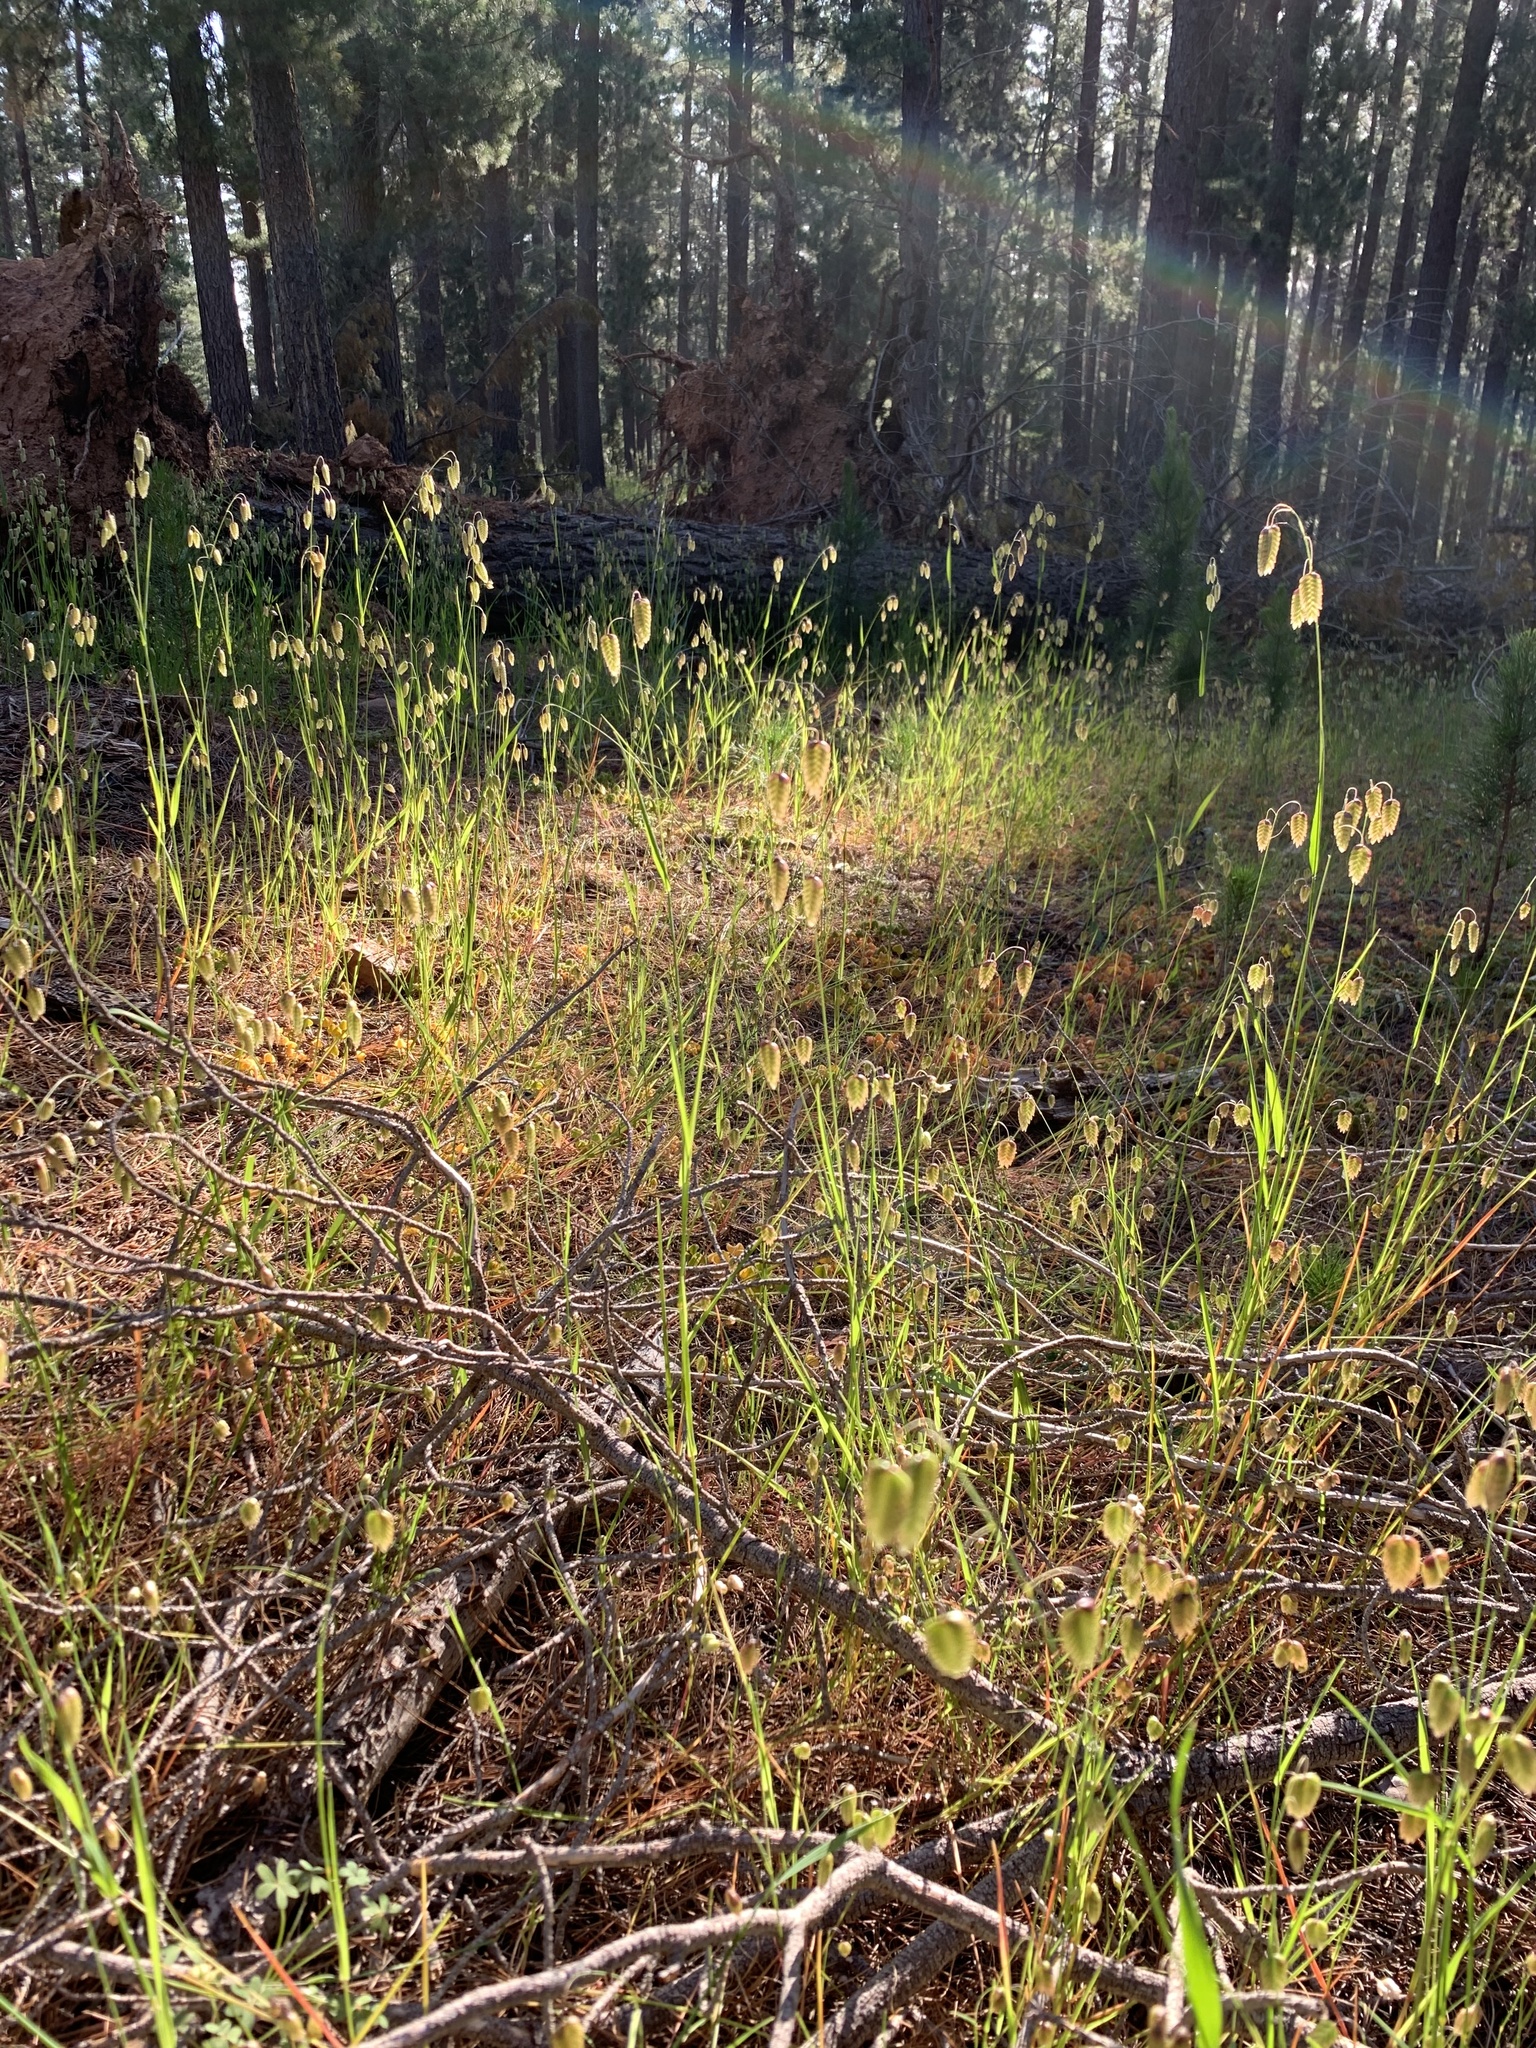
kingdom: Plantae
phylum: Tracheophyta
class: Liliopsida
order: Poales
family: Poaceae
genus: Briza
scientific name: Briza maxima
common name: Big quakinggrass
